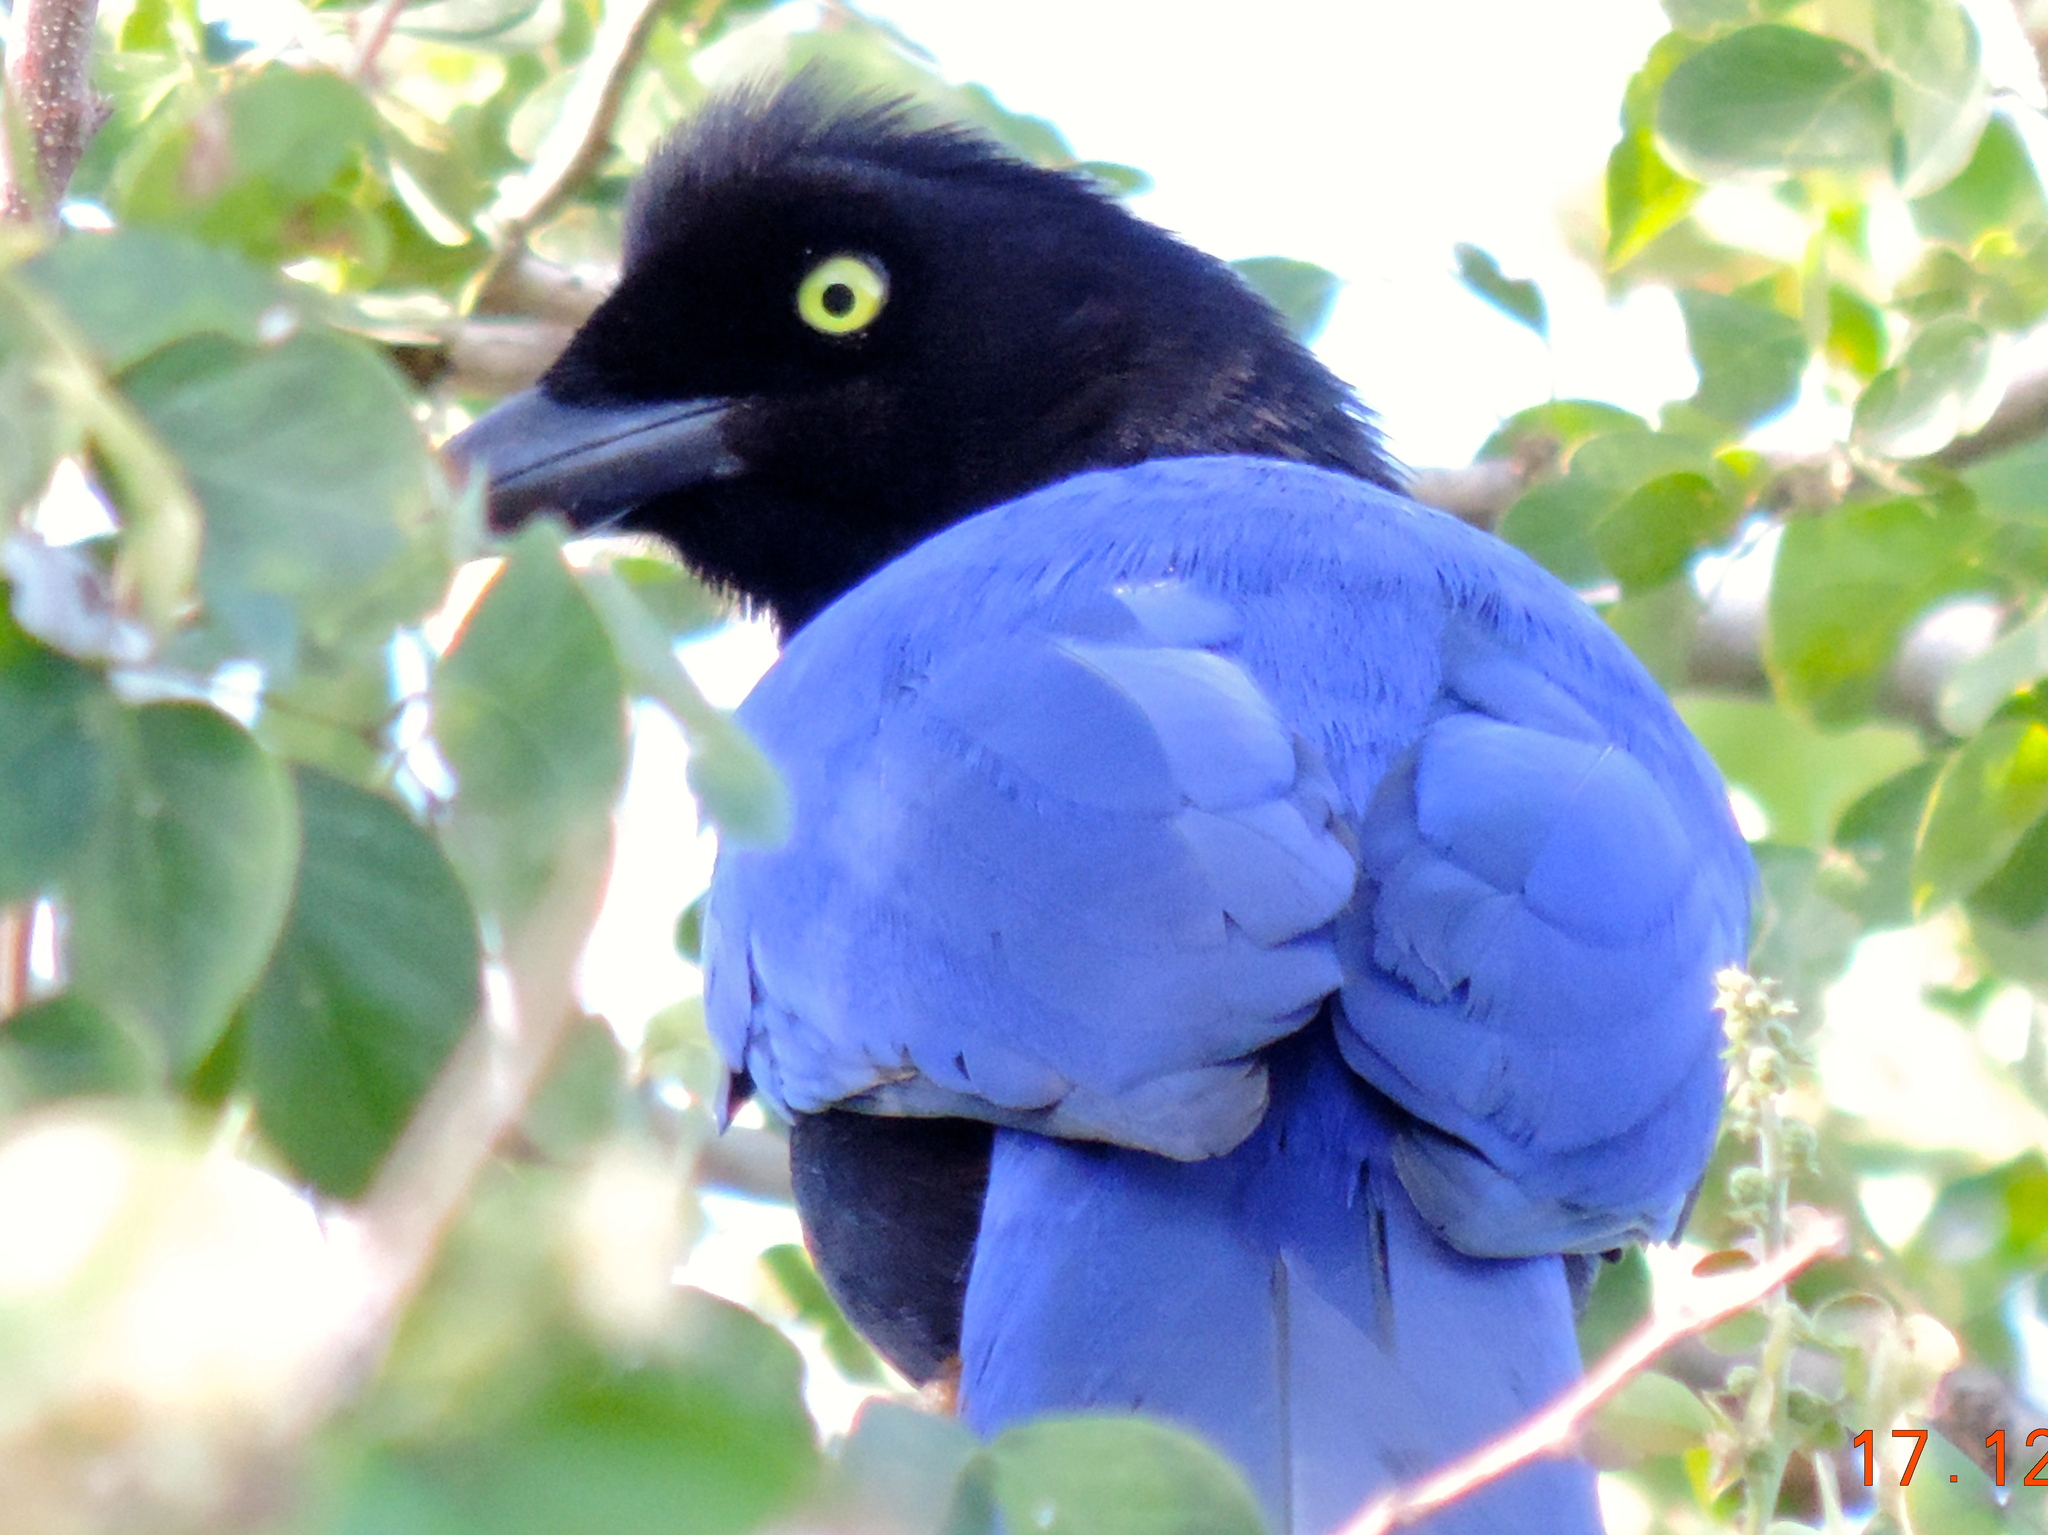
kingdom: Animalia
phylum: Chordata
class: Aves
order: Passeriformes
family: Corvidae
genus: Cyanocorax
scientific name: Cyanocorax beecheii
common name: Purplish-backed jay
